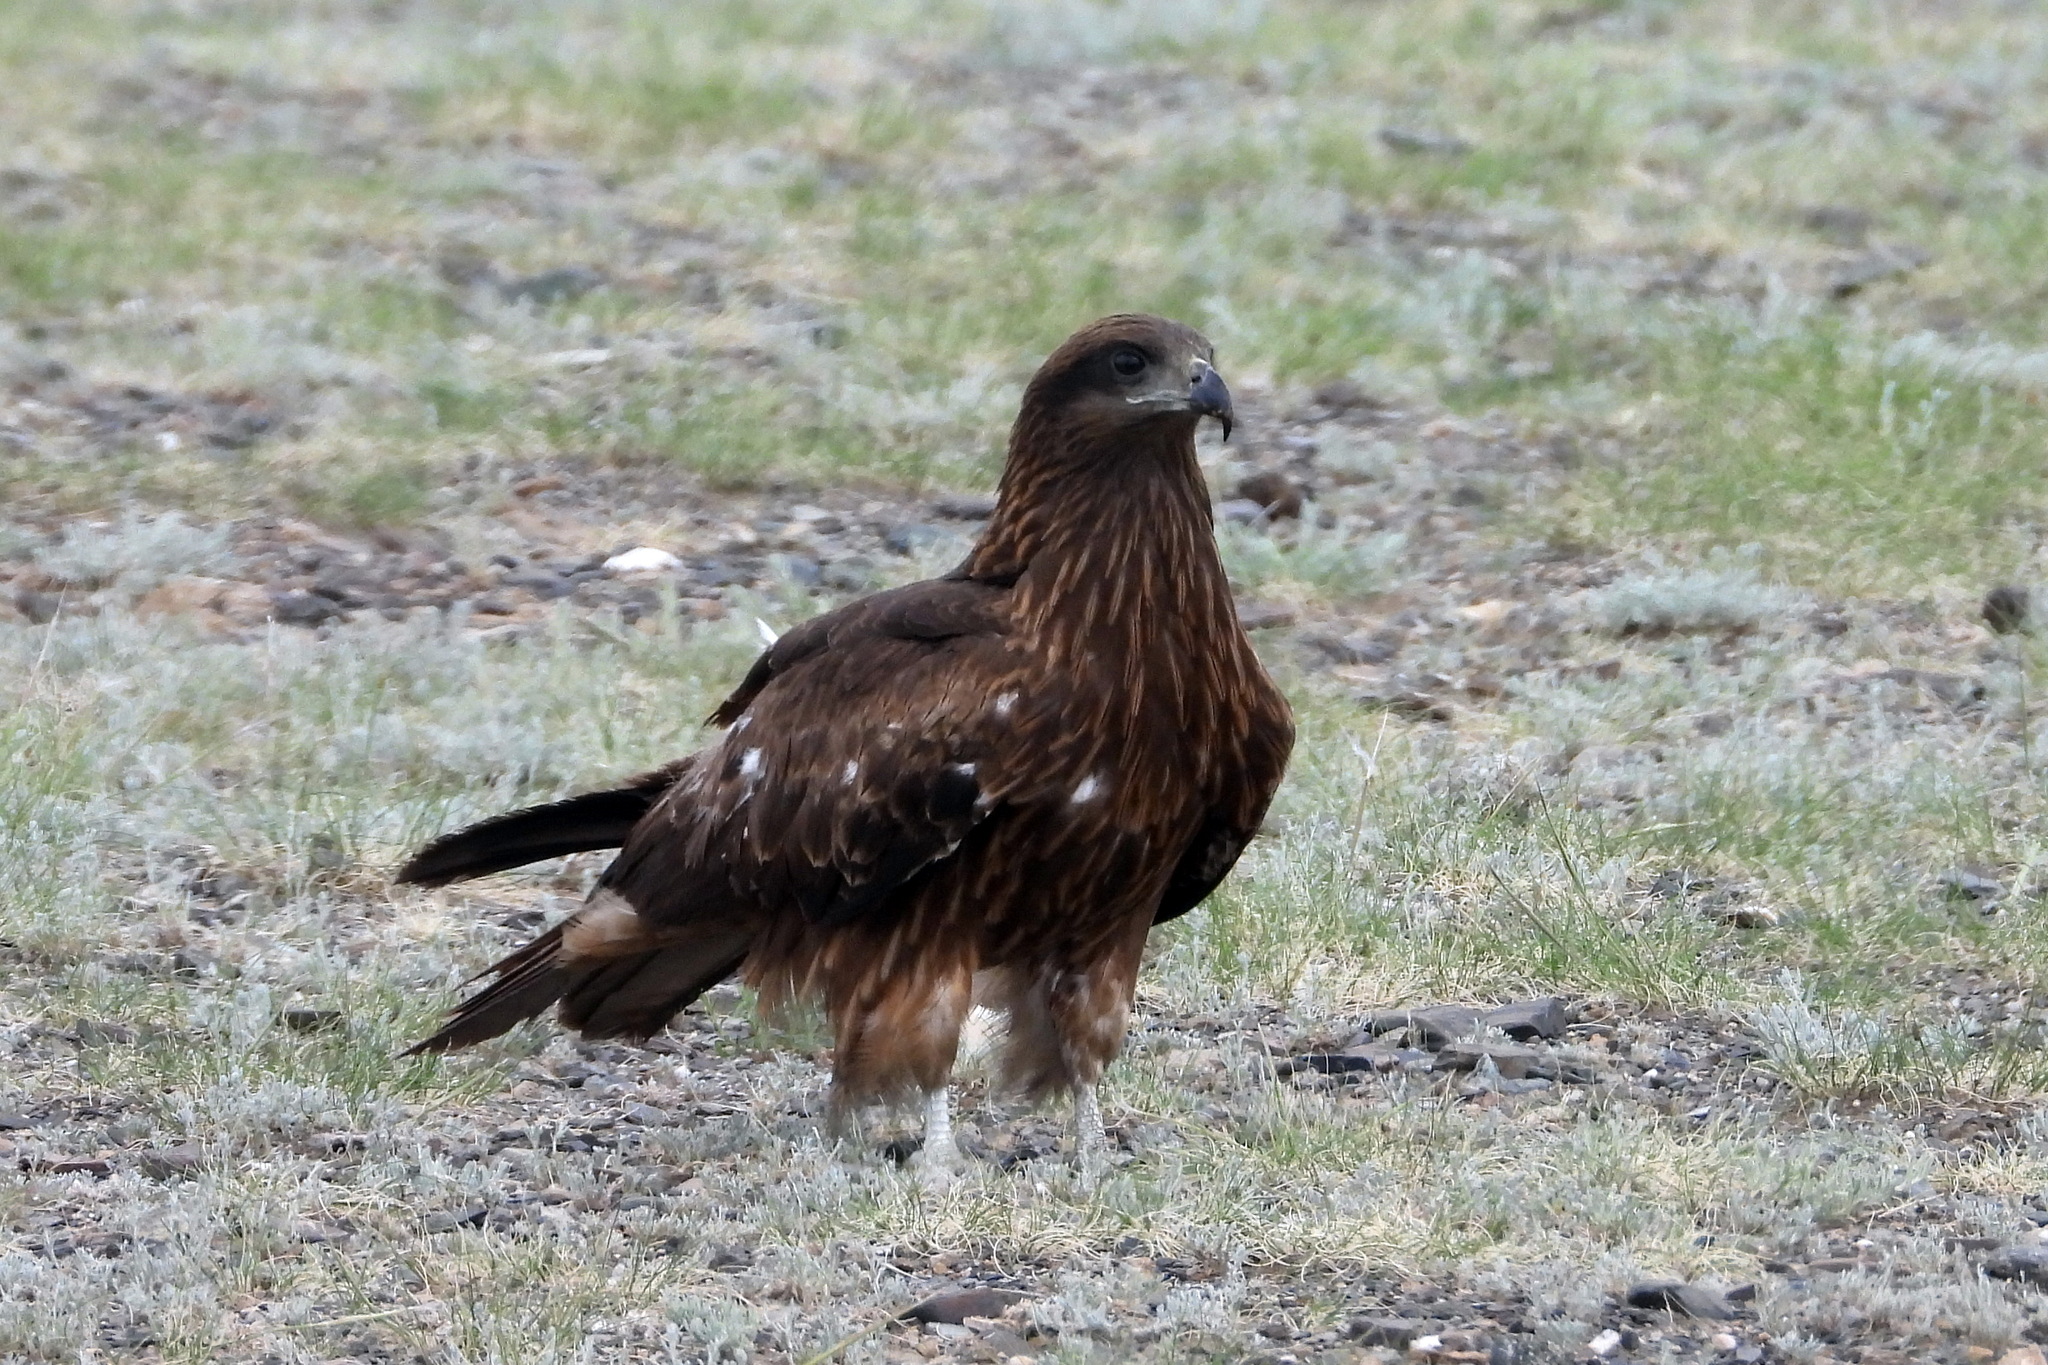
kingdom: Animalia
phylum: Chordata
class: Aves
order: Accipitriformes
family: Accipitridae
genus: Milvus
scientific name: Milvus migrans
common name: Black kite
